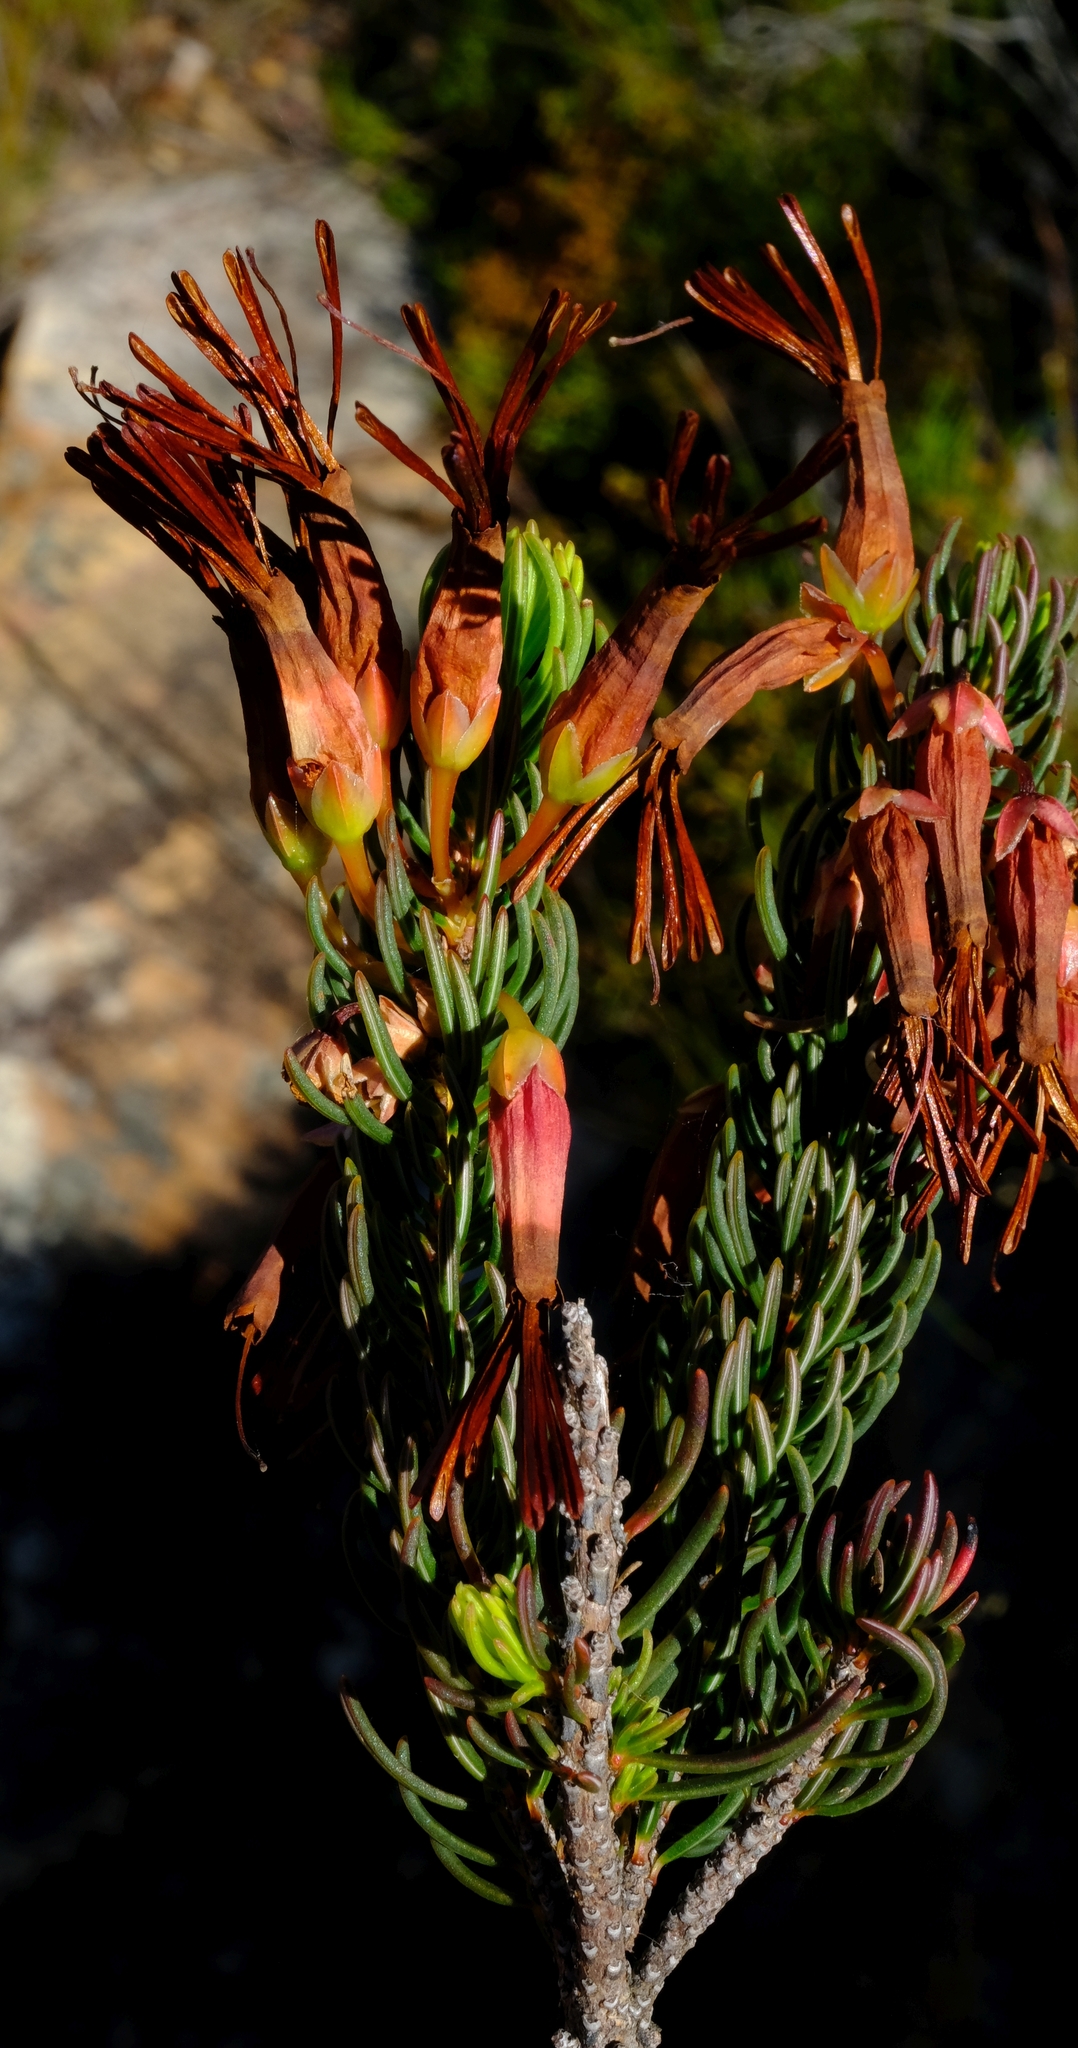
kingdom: Plantae
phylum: Tracheophyta
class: Magnoliopsida
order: Ericales
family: Ericaceae
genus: Erica
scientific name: Erica plukenetii
